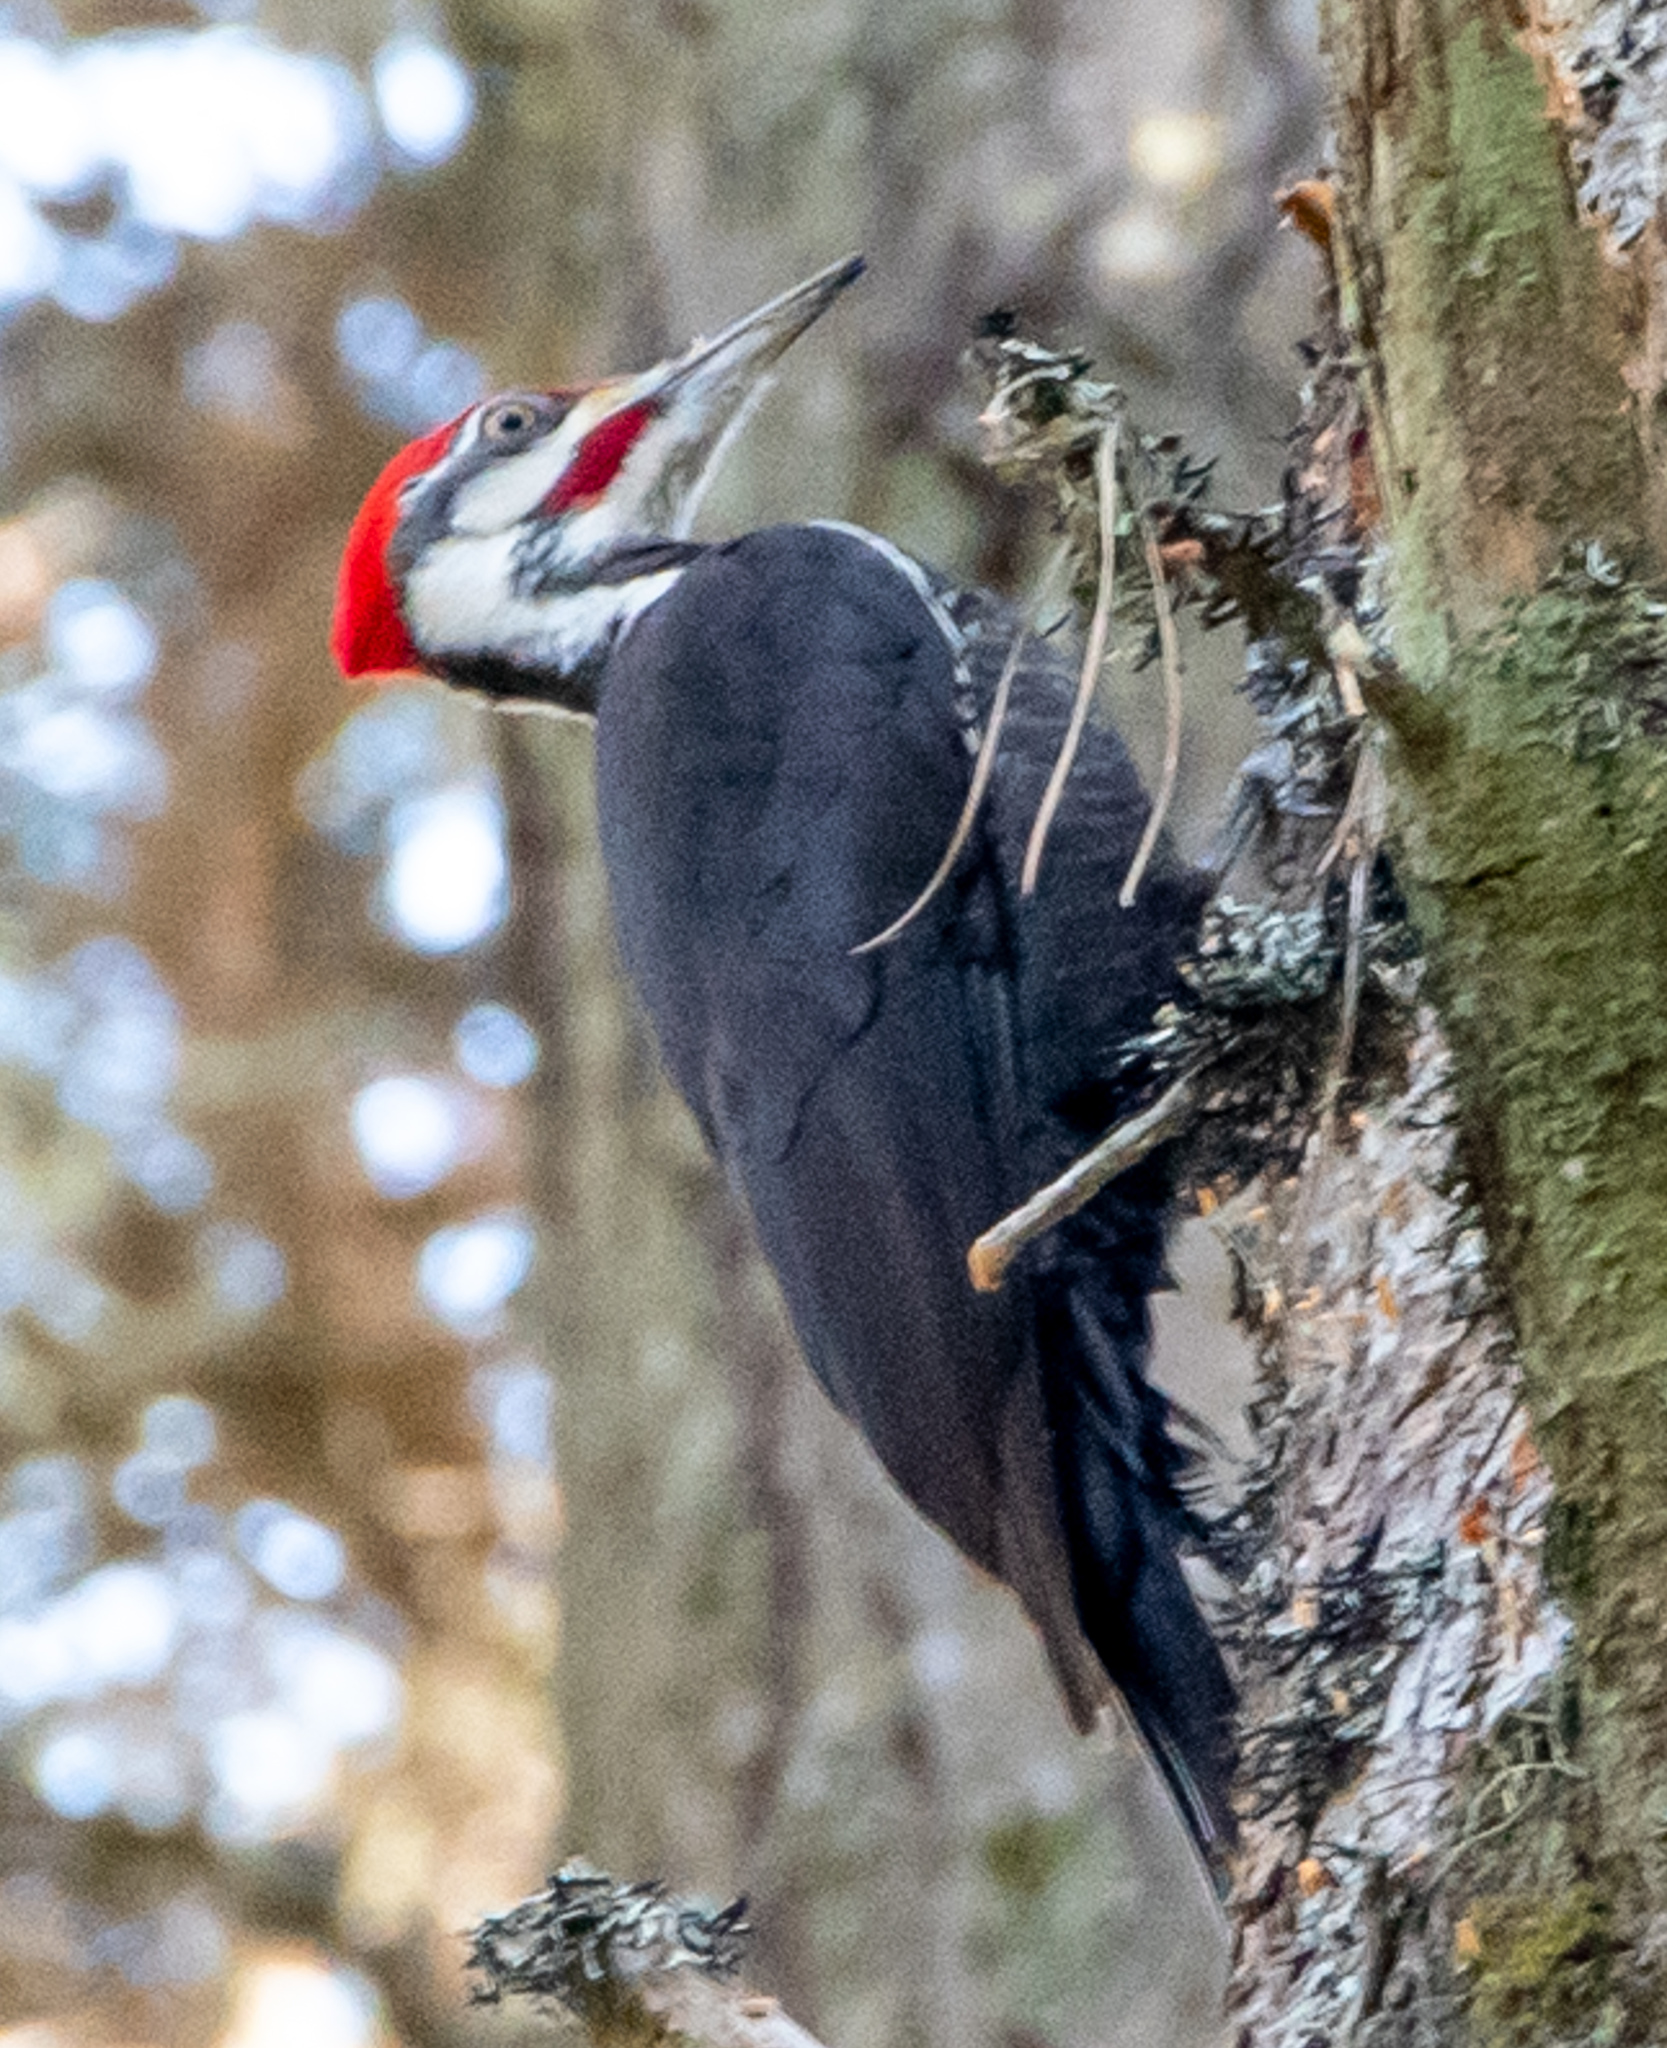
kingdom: Animalia
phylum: Chordata
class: Aves
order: Piciformes
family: Picidae
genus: Dryocopus
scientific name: Dryocopus pileatus
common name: Pileated woodpecker
